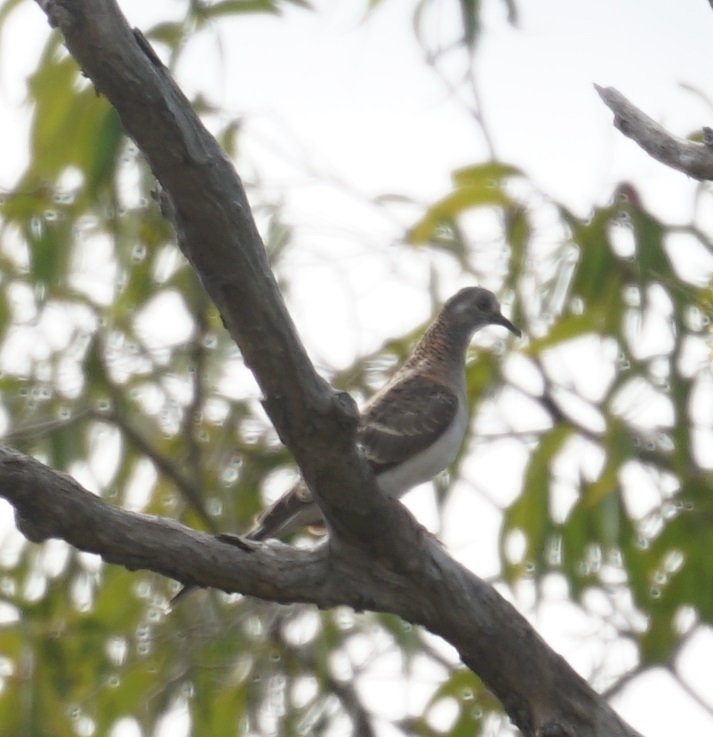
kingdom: Animalia
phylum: Chordata
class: Aves
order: Columbiformes
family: Columbidae
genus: Geopelia
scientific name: Geopelia humeralis
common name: Bar-shouldered dove
